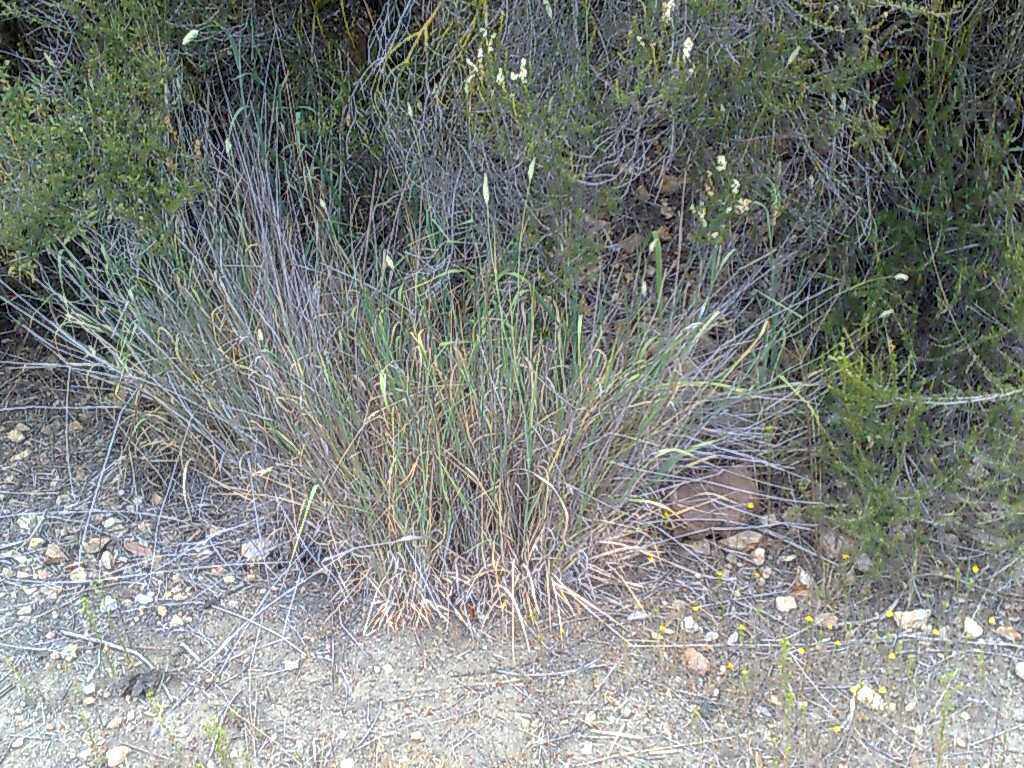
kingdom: Plantae
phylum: Tracheophyta
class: Liliopsida
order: Poales
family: Poaceae
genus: Phalaris
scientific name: Phalaris aquatica
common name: Bulbous canary-grass
